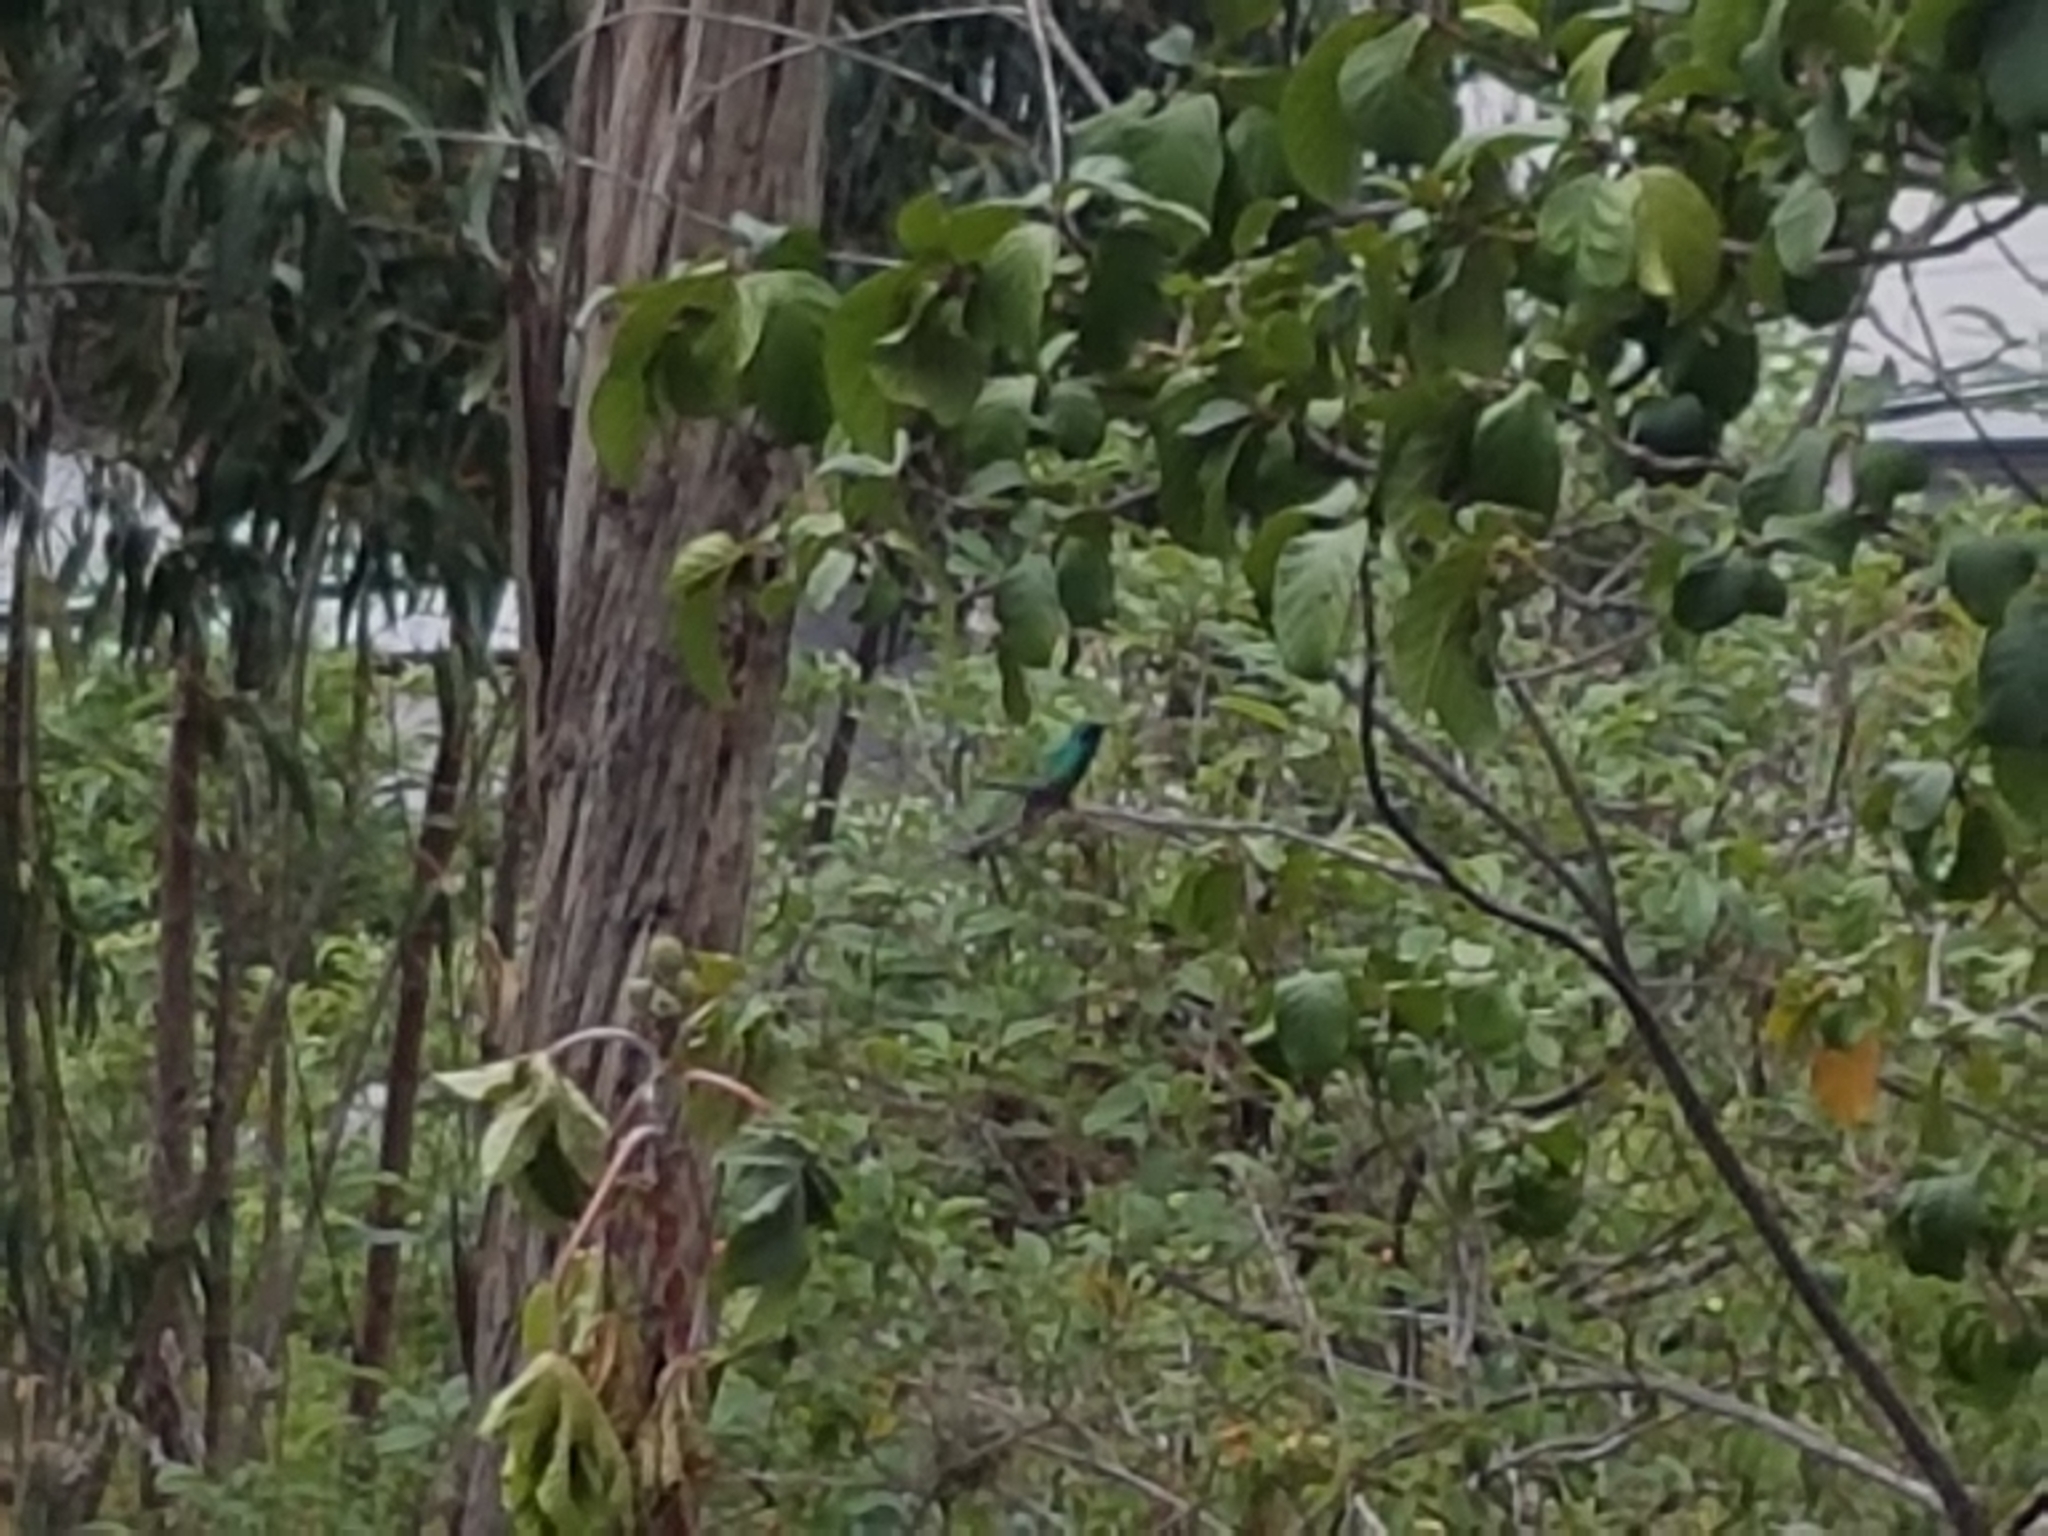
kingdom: Animalia
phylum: Chordata
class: Aves
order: Apodiformes
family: Trochilidae
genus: Colibri
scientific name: Colibri coruscans
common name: Sparkling violetear
